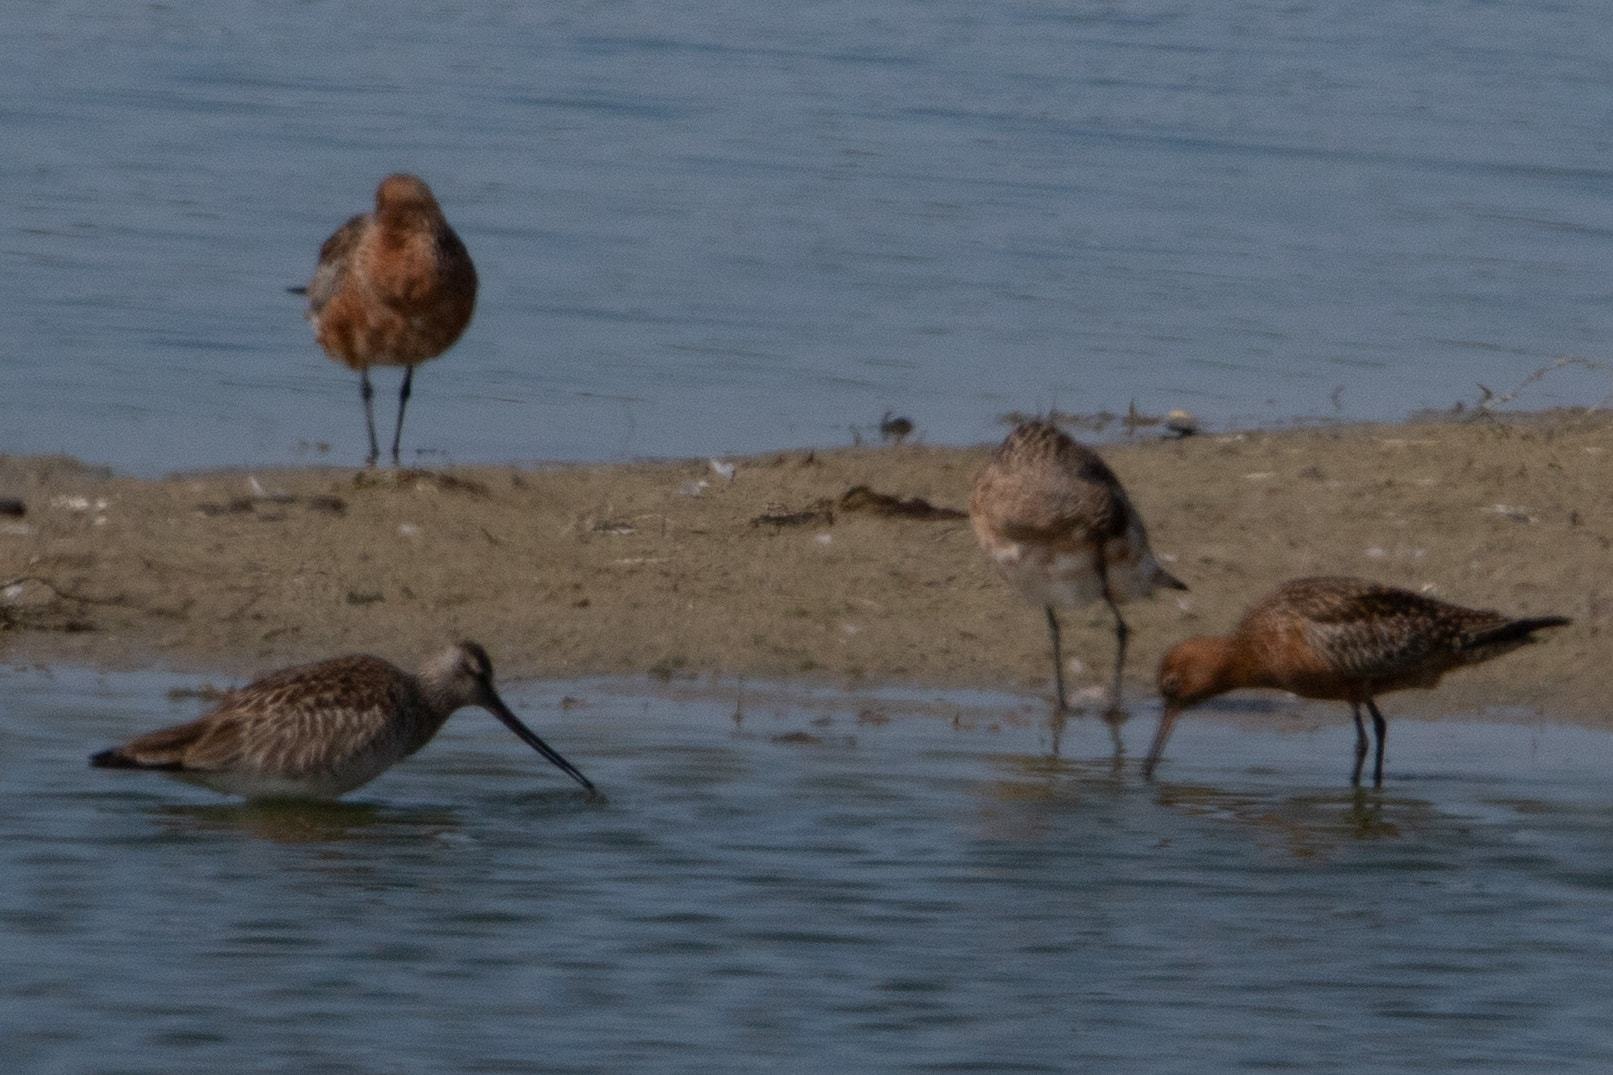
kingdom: Animalia
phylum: Chordata
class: Aves
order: Charadriiformes
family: Scolopacidae
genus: Limosa
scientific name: Limosa lapponica
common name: Bar-tailed godwit
